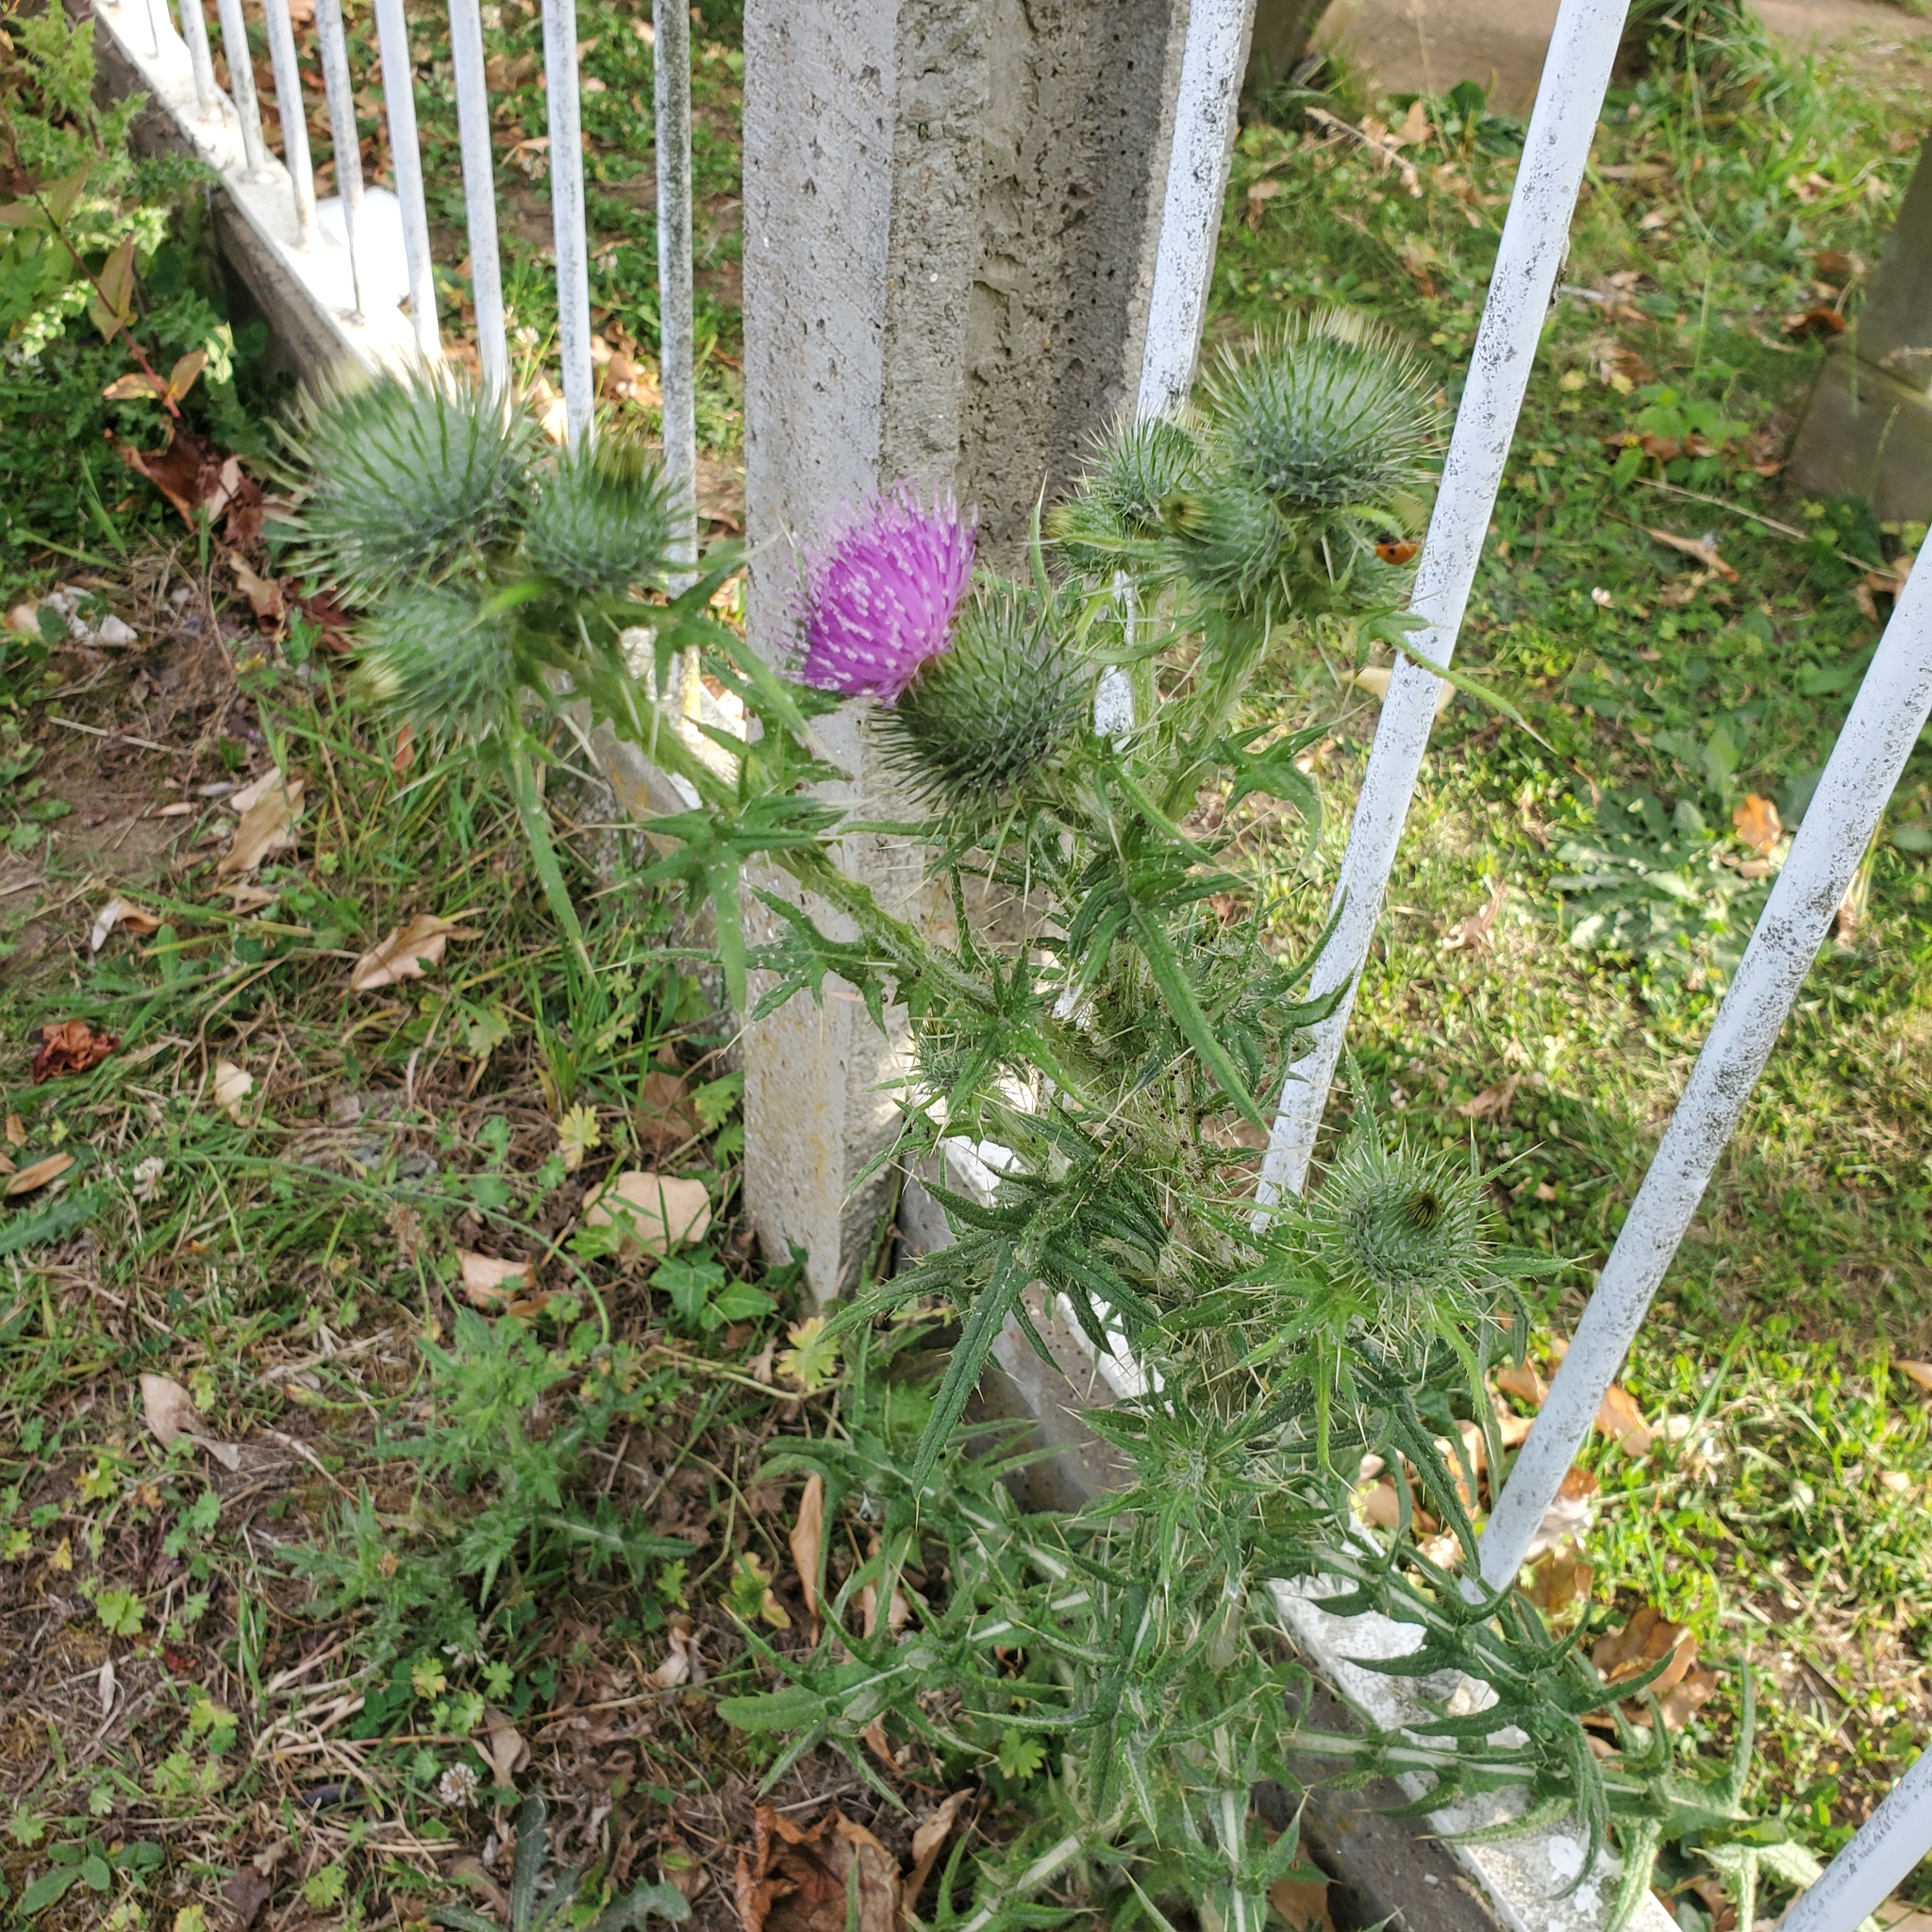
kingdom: Plantae
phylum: Tracheophyta
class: Magnoliopsida
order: Asterales
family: Asteraceae
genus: Cirsium
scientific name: Cirsium vulgare
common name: Bull thistle
